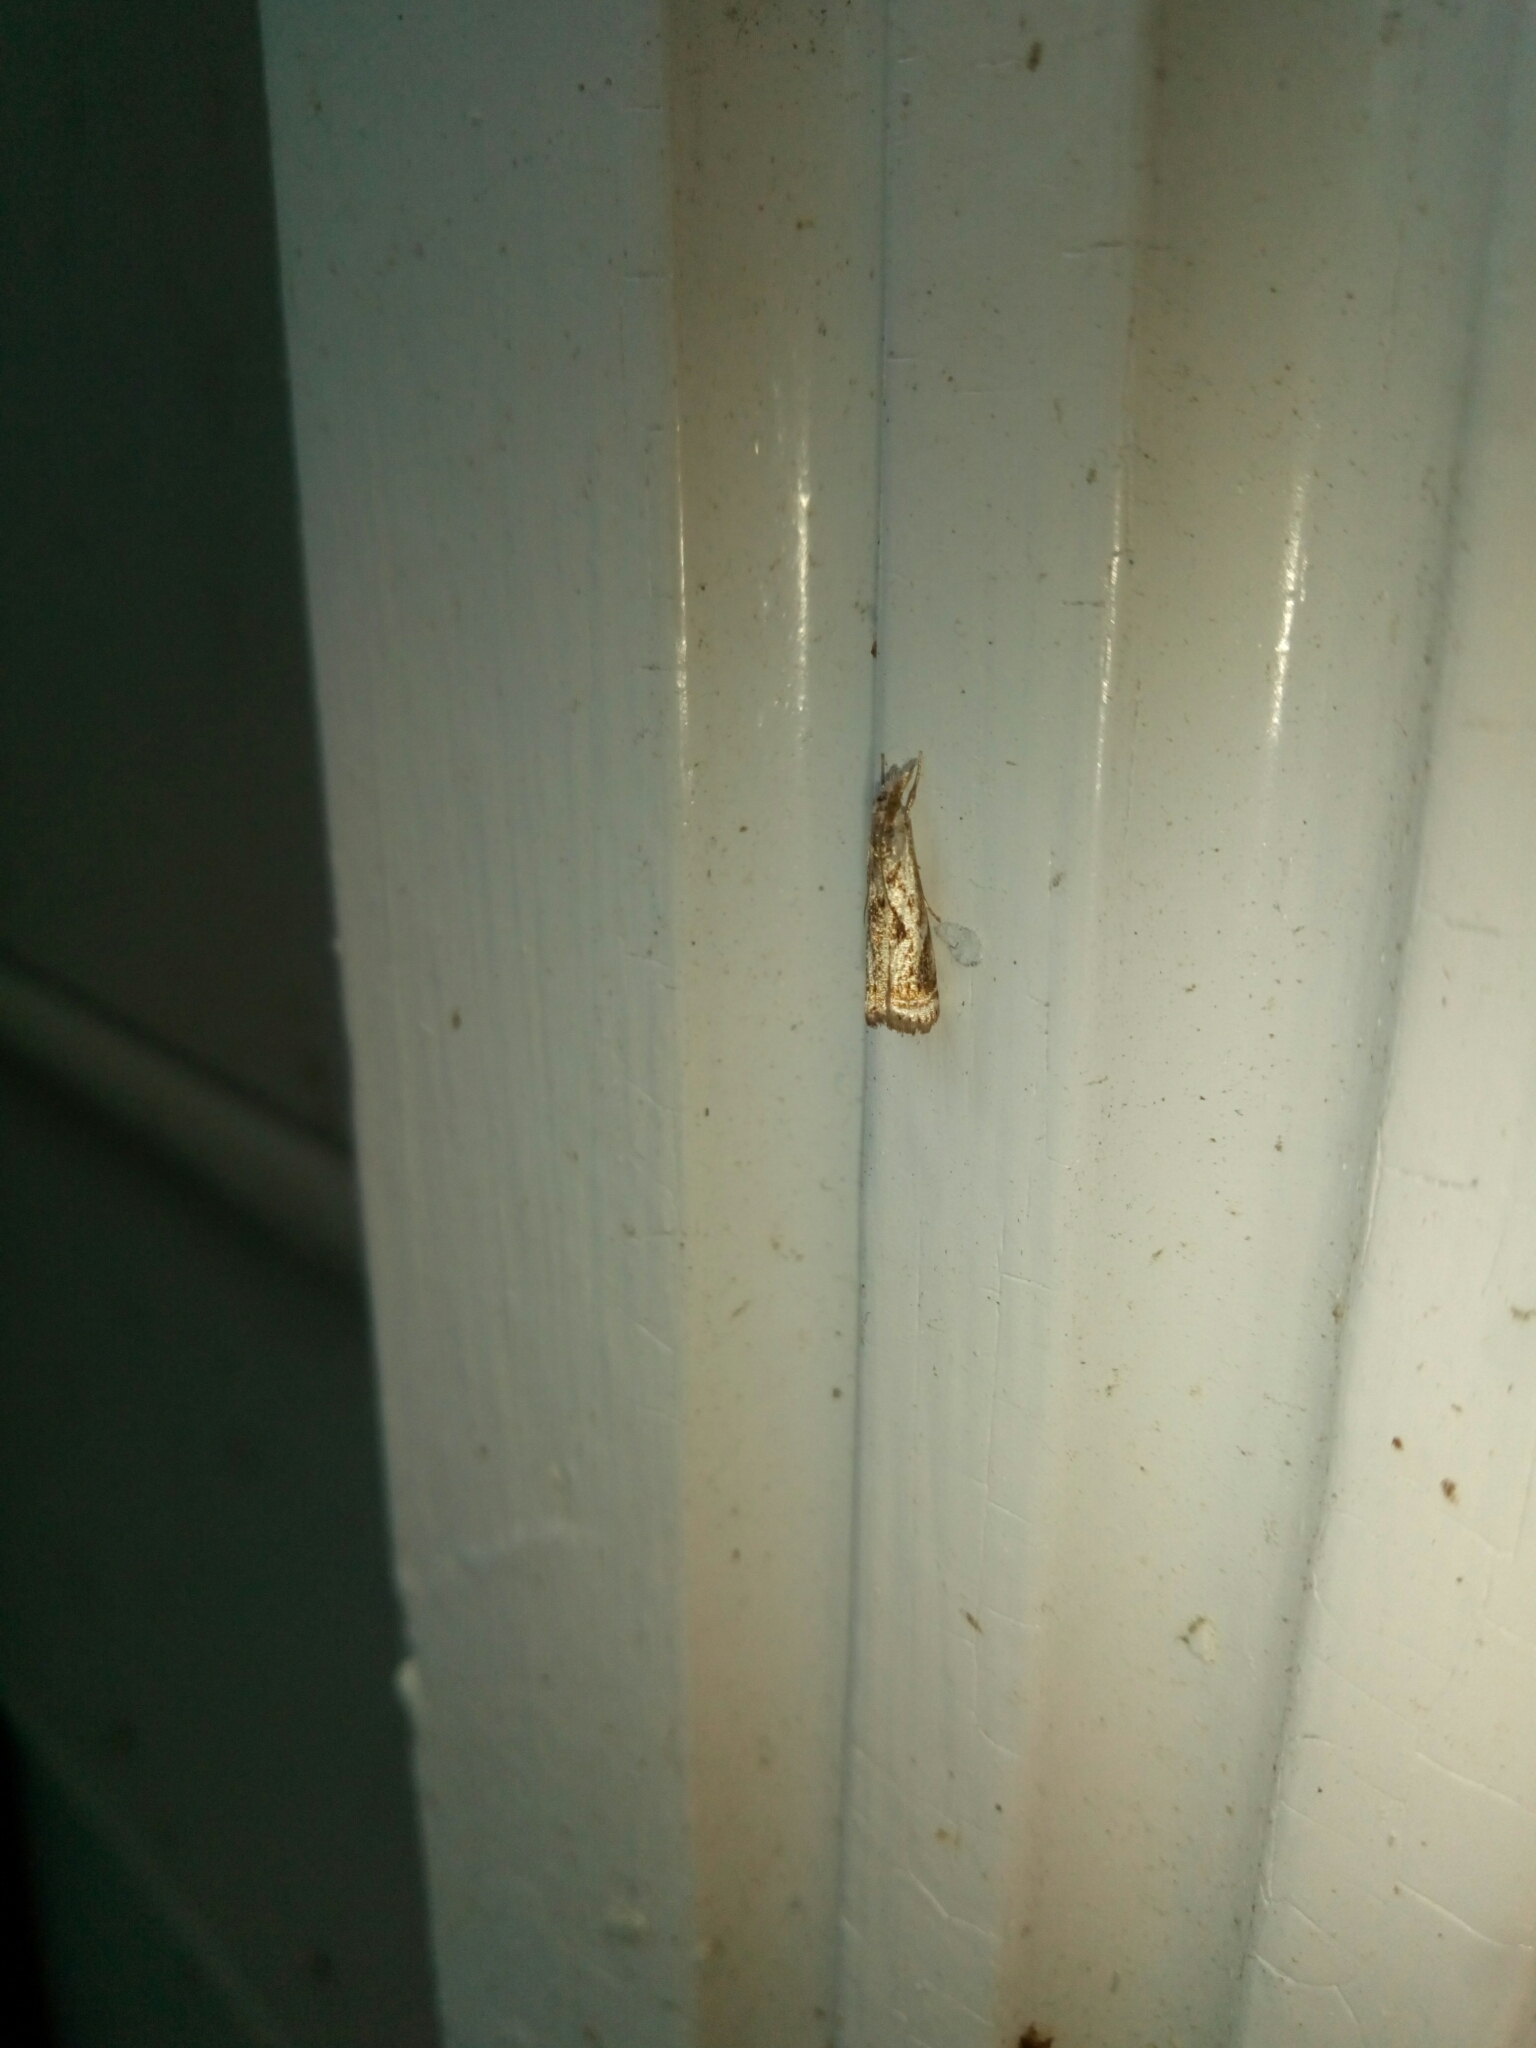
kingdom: Animalia
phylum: Arthropoda
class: Insecta
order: Lepidoptera
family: Crambidae
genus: Microcrambus
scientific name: Microcrambus elegans
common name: Elegant grass-veneer
